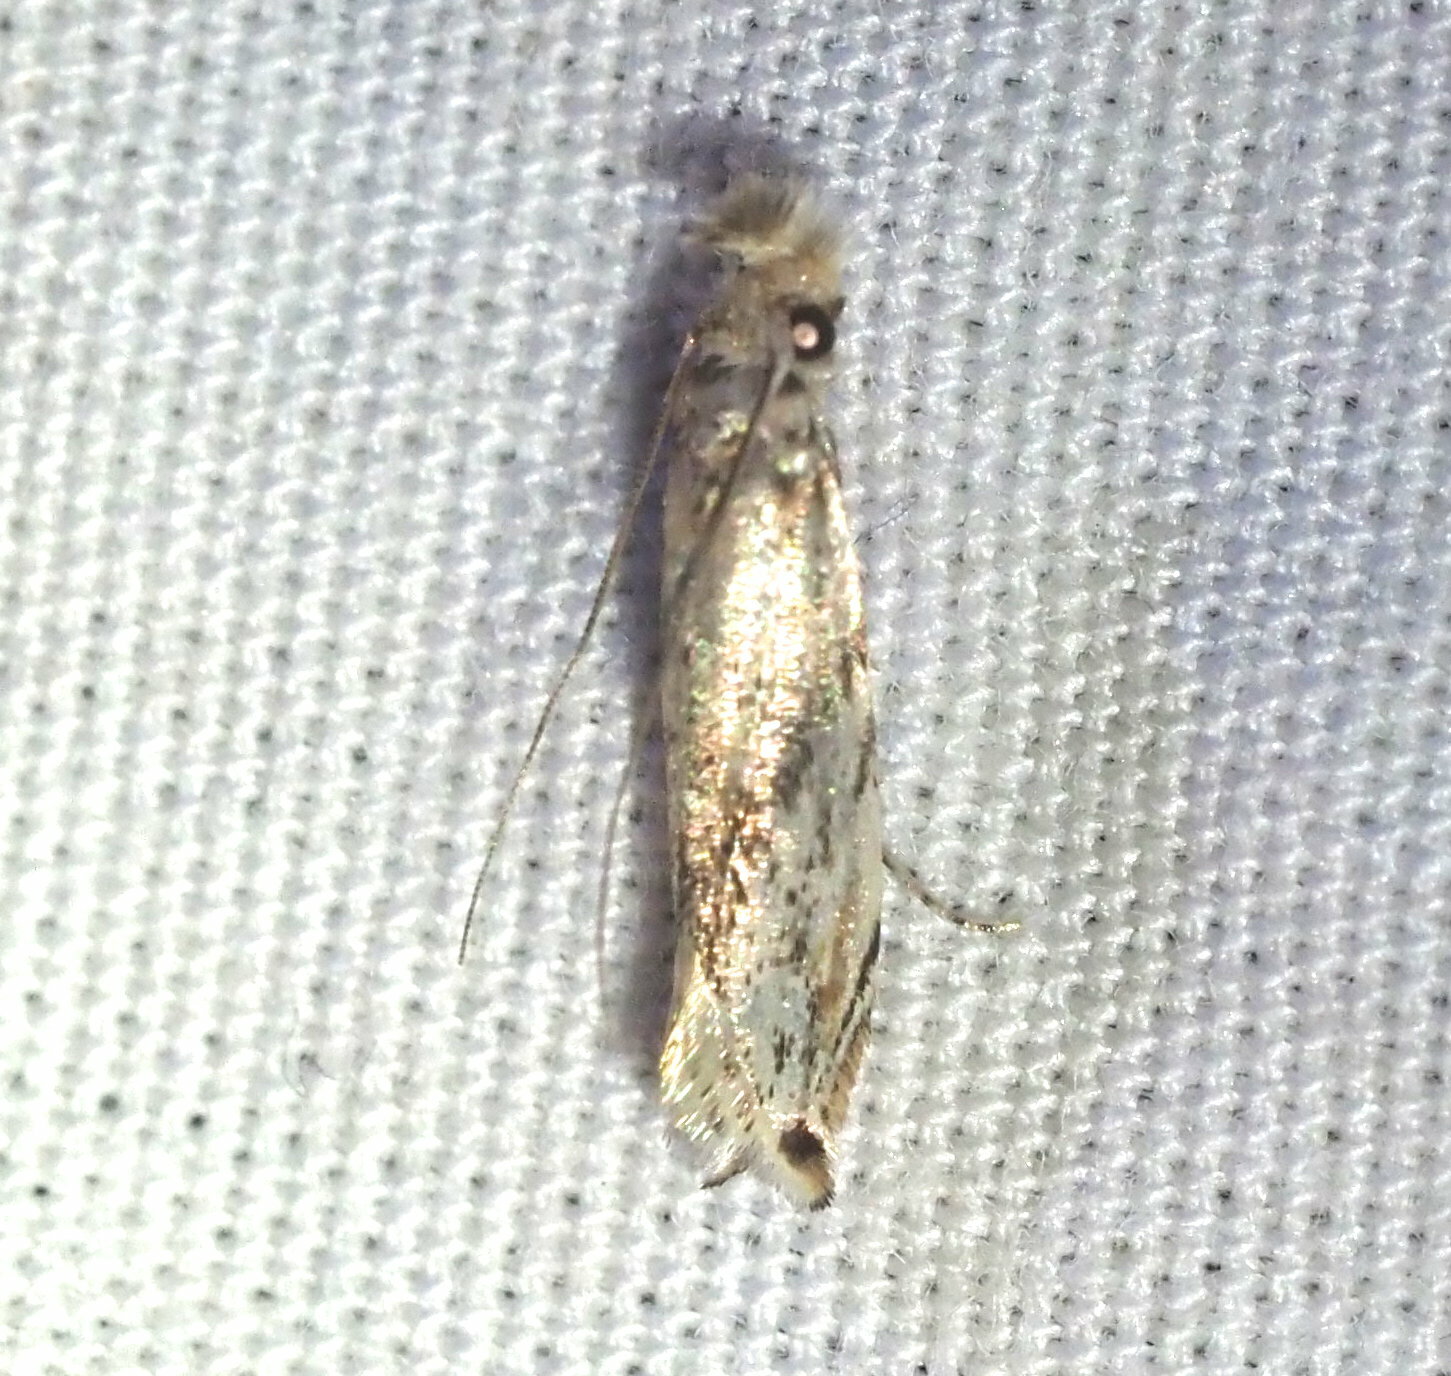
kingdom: Animalia
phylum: Arthropoda
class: Insecta
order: Lepidoptera
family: Tineidae
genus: Erechthias
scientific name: Erechthias pelotricha
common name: Fungus moth
